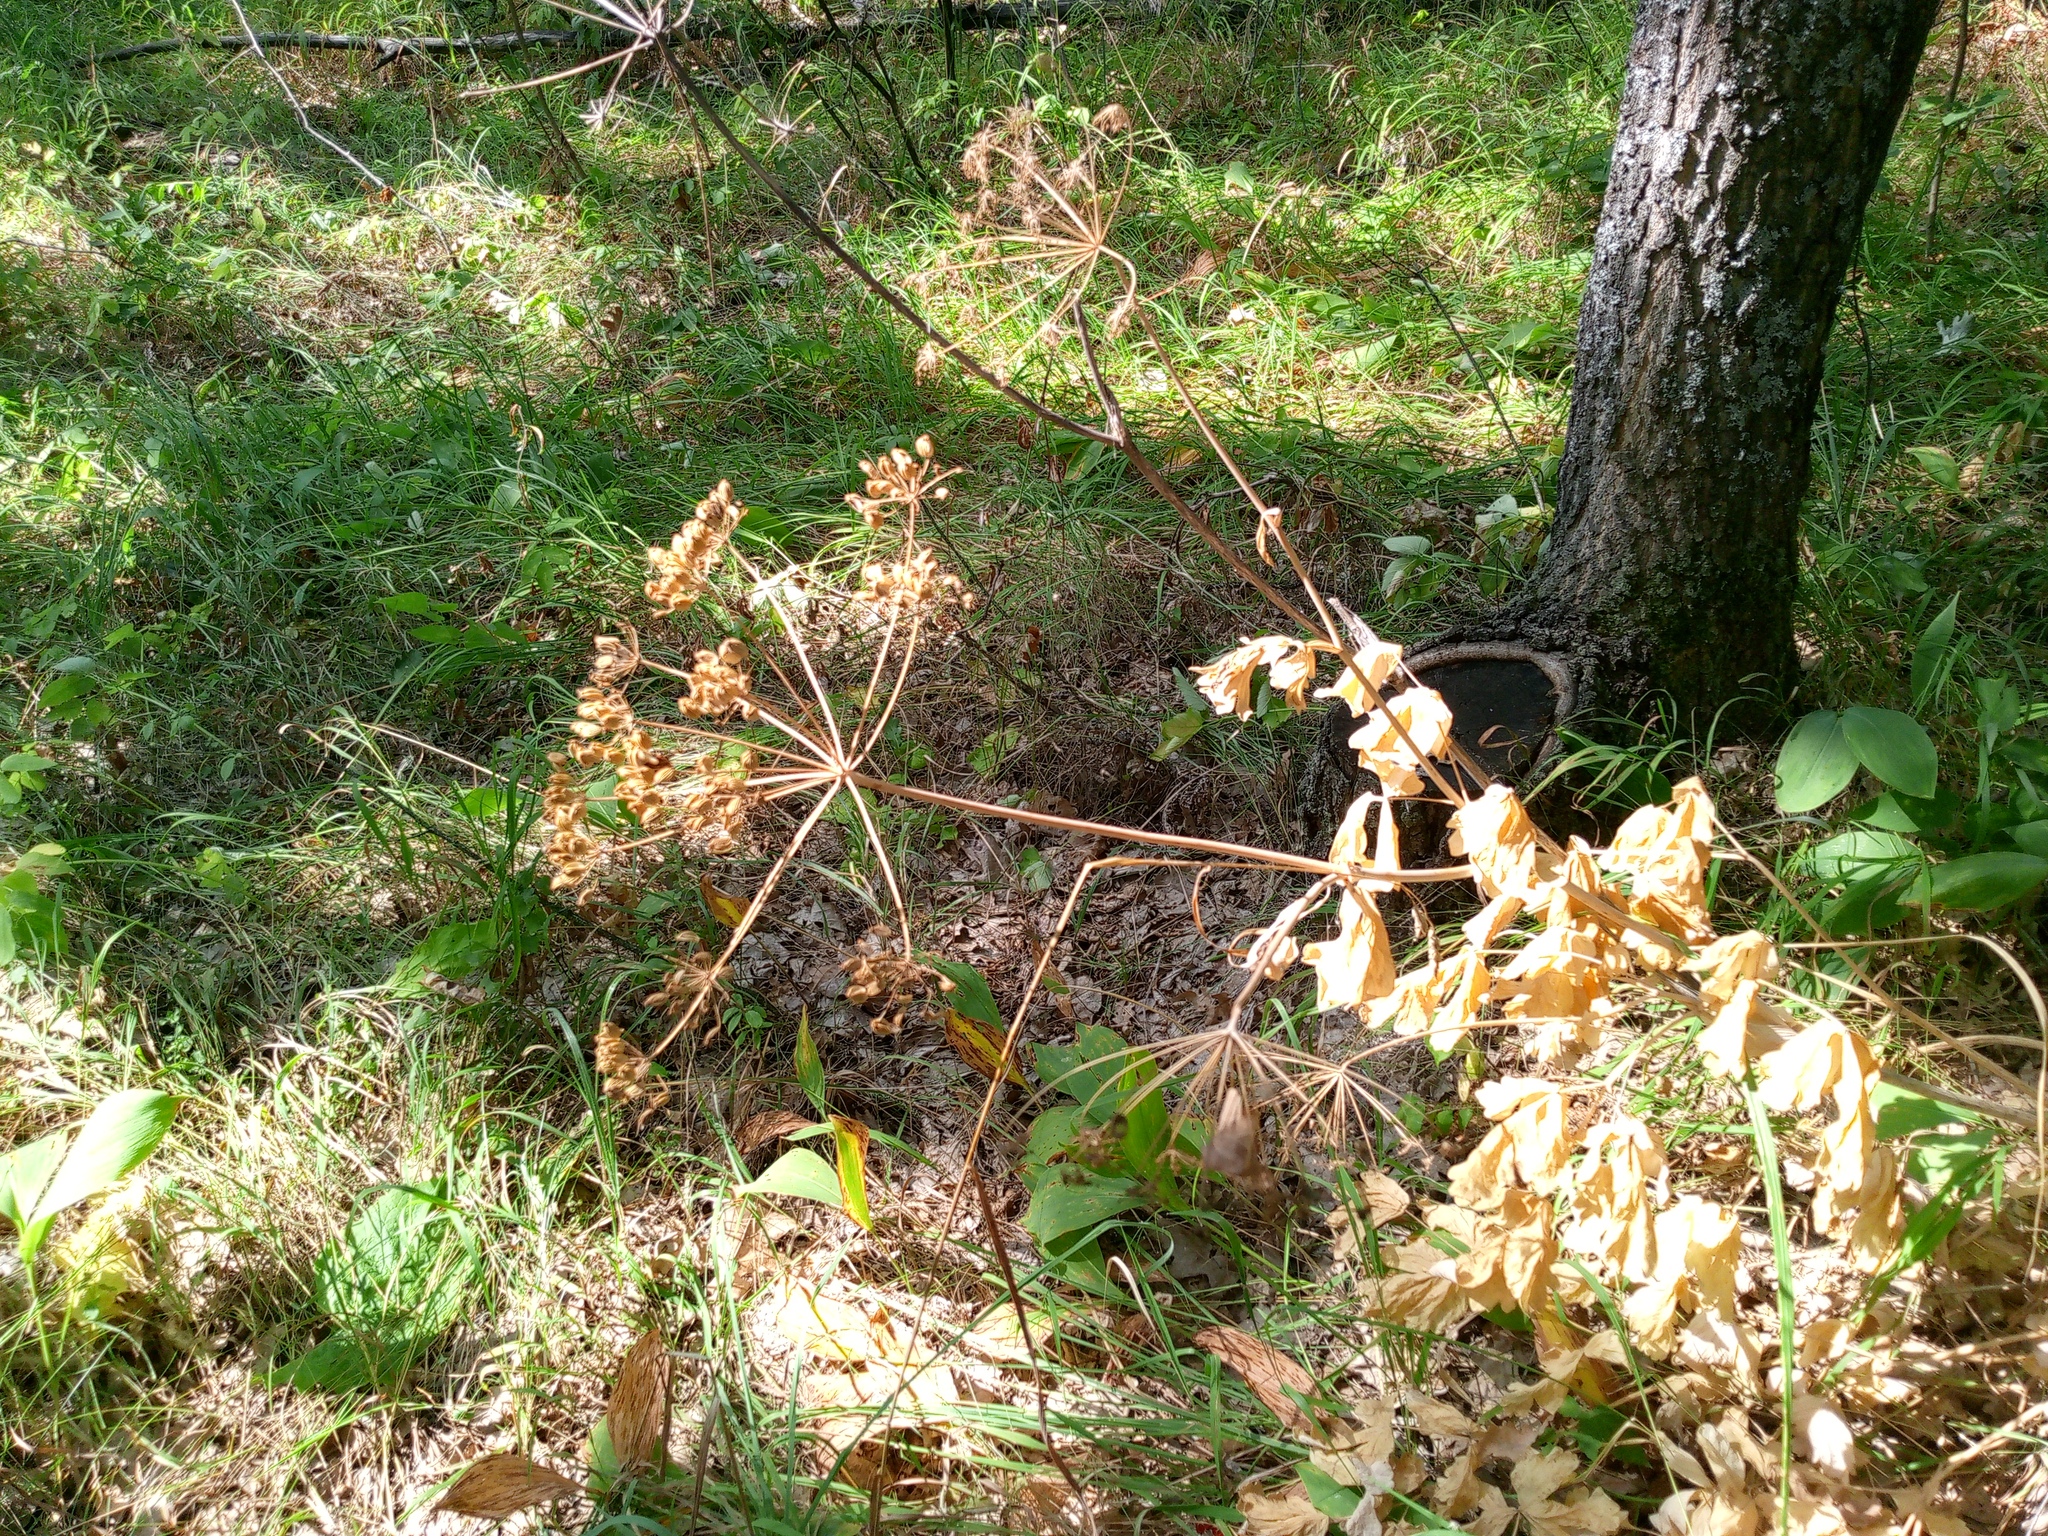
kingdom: Plantae
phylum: Tracheophyta
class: Magnoliopsida
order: Apiales
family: Apiaceae
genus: Laser
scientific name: Laser trilobum
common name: Laser
